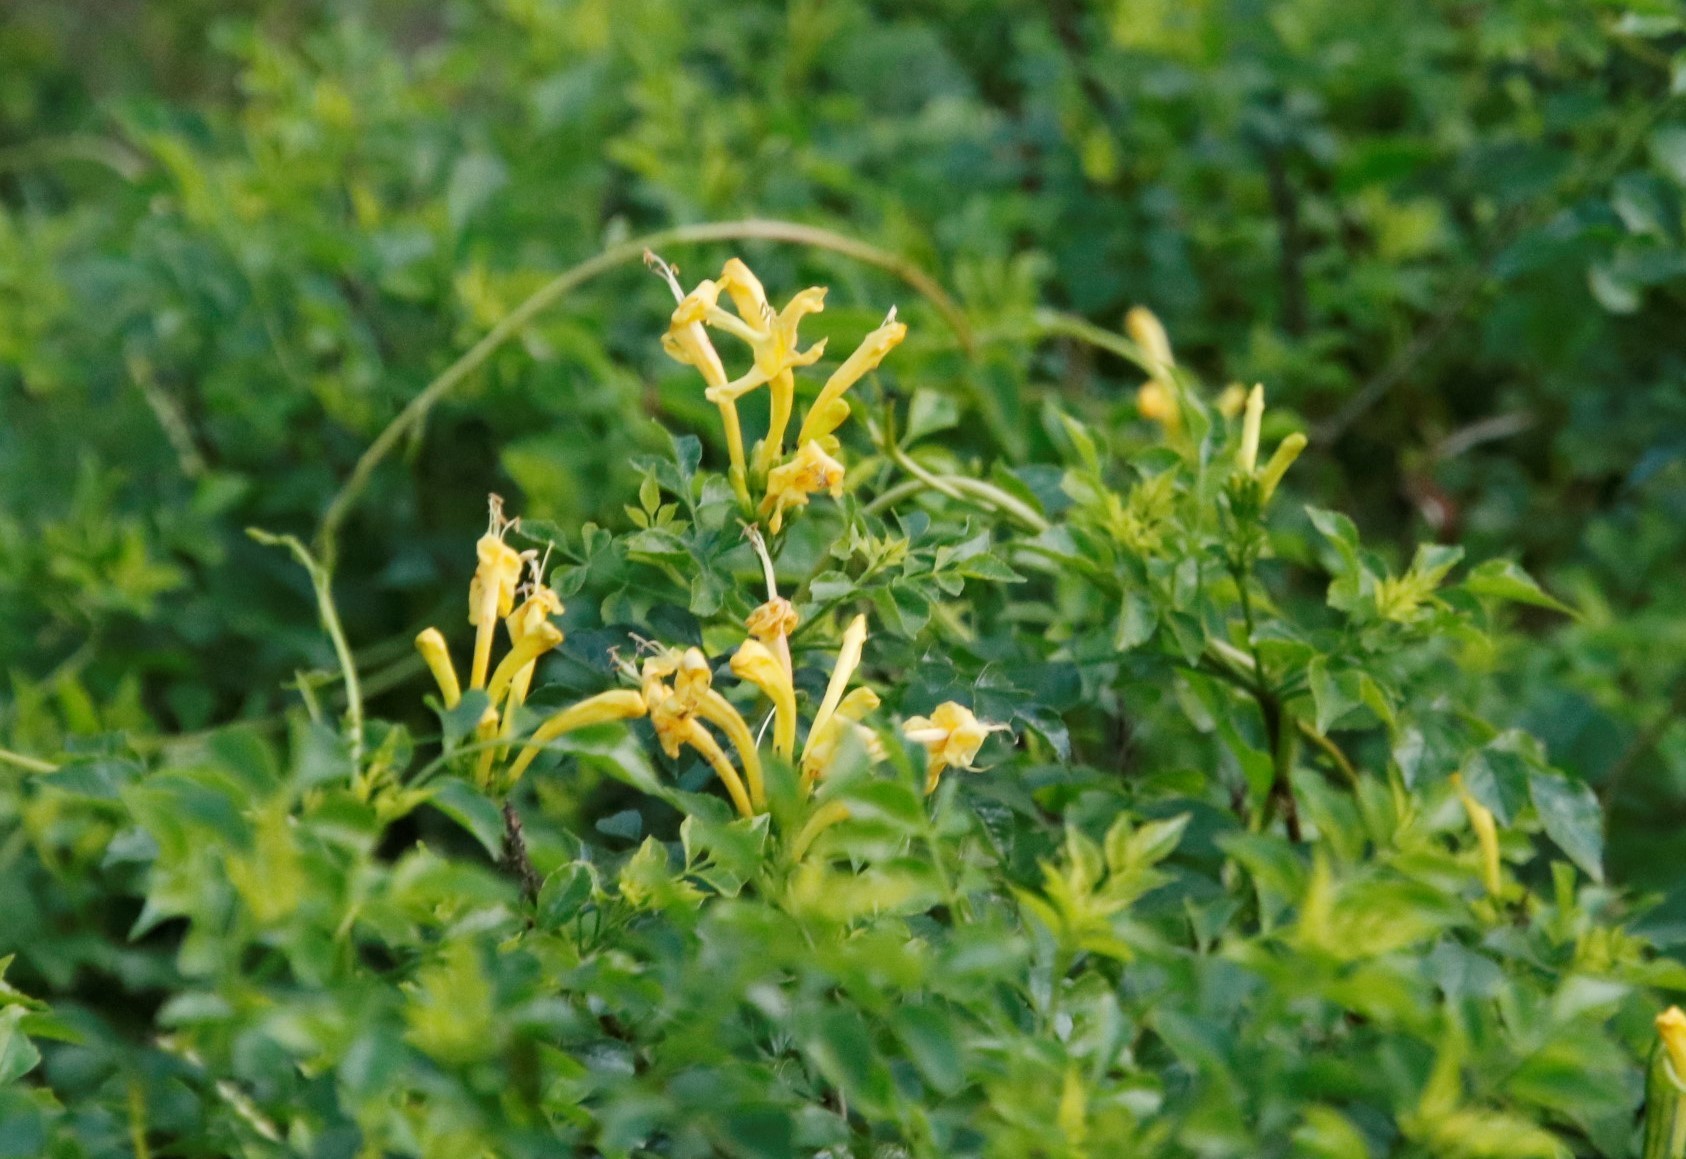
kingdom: Plantae
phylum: Tracheophyta
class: Magnoliopsida
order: Lamiales
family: Bignoniaceae
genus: Tecomaria
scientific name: Tecomaria capensis
